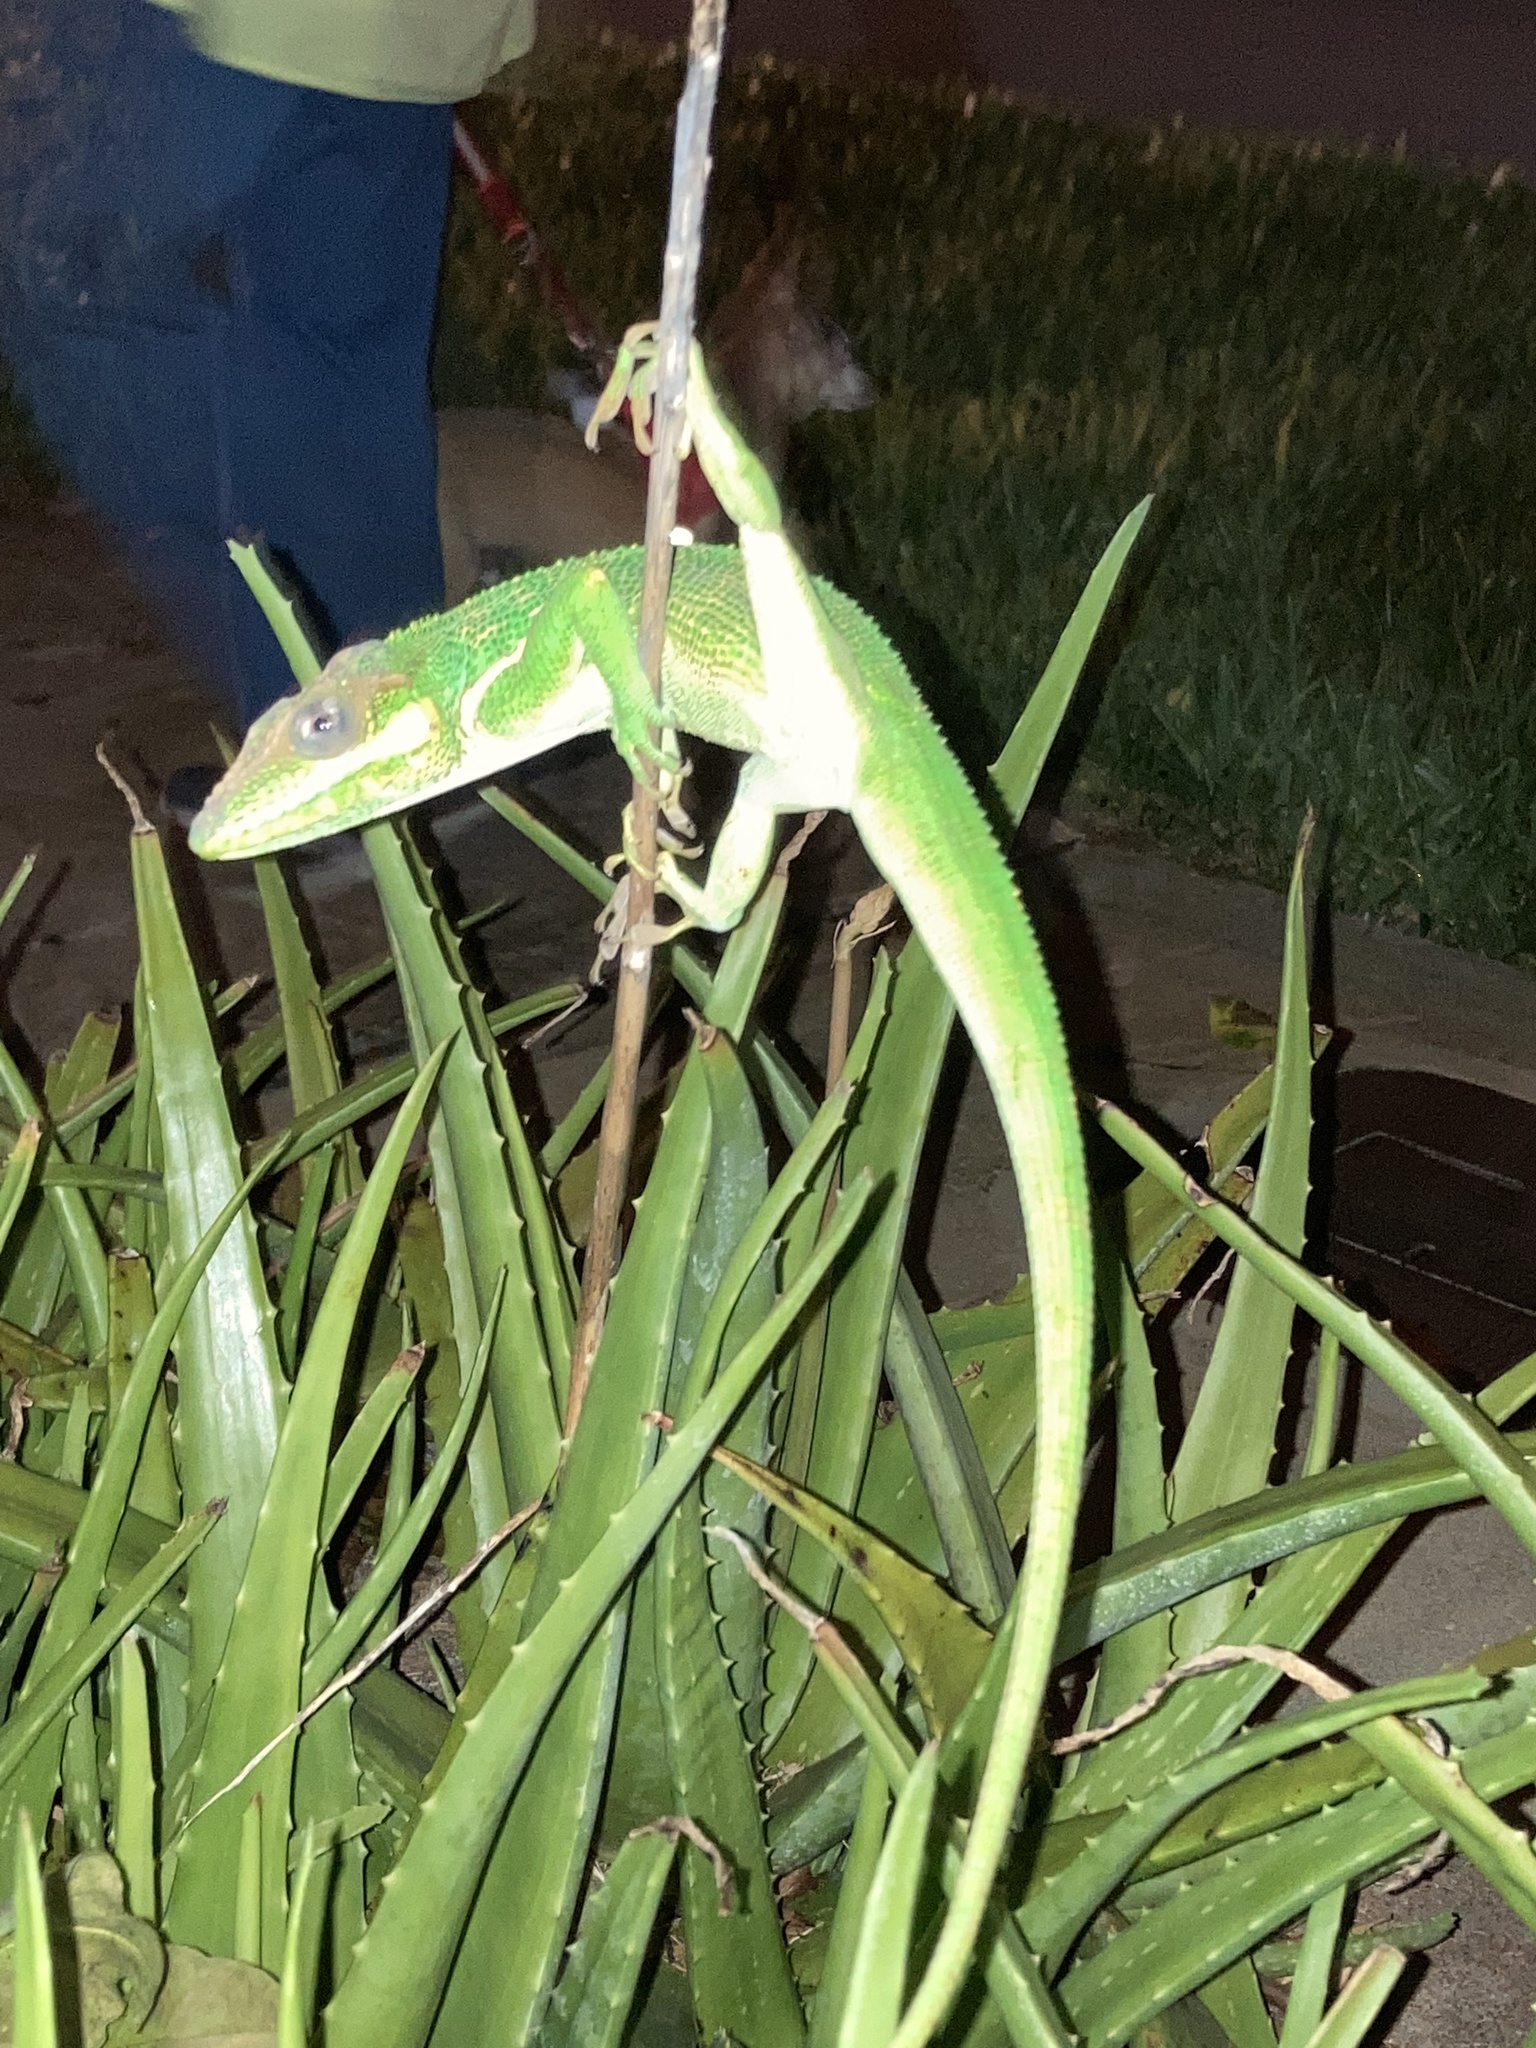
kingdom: Animalia
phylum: Chordata
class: Squamata
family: Dactyloidae
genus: Anolis
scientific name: Anolis equestris
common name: Knight anole
